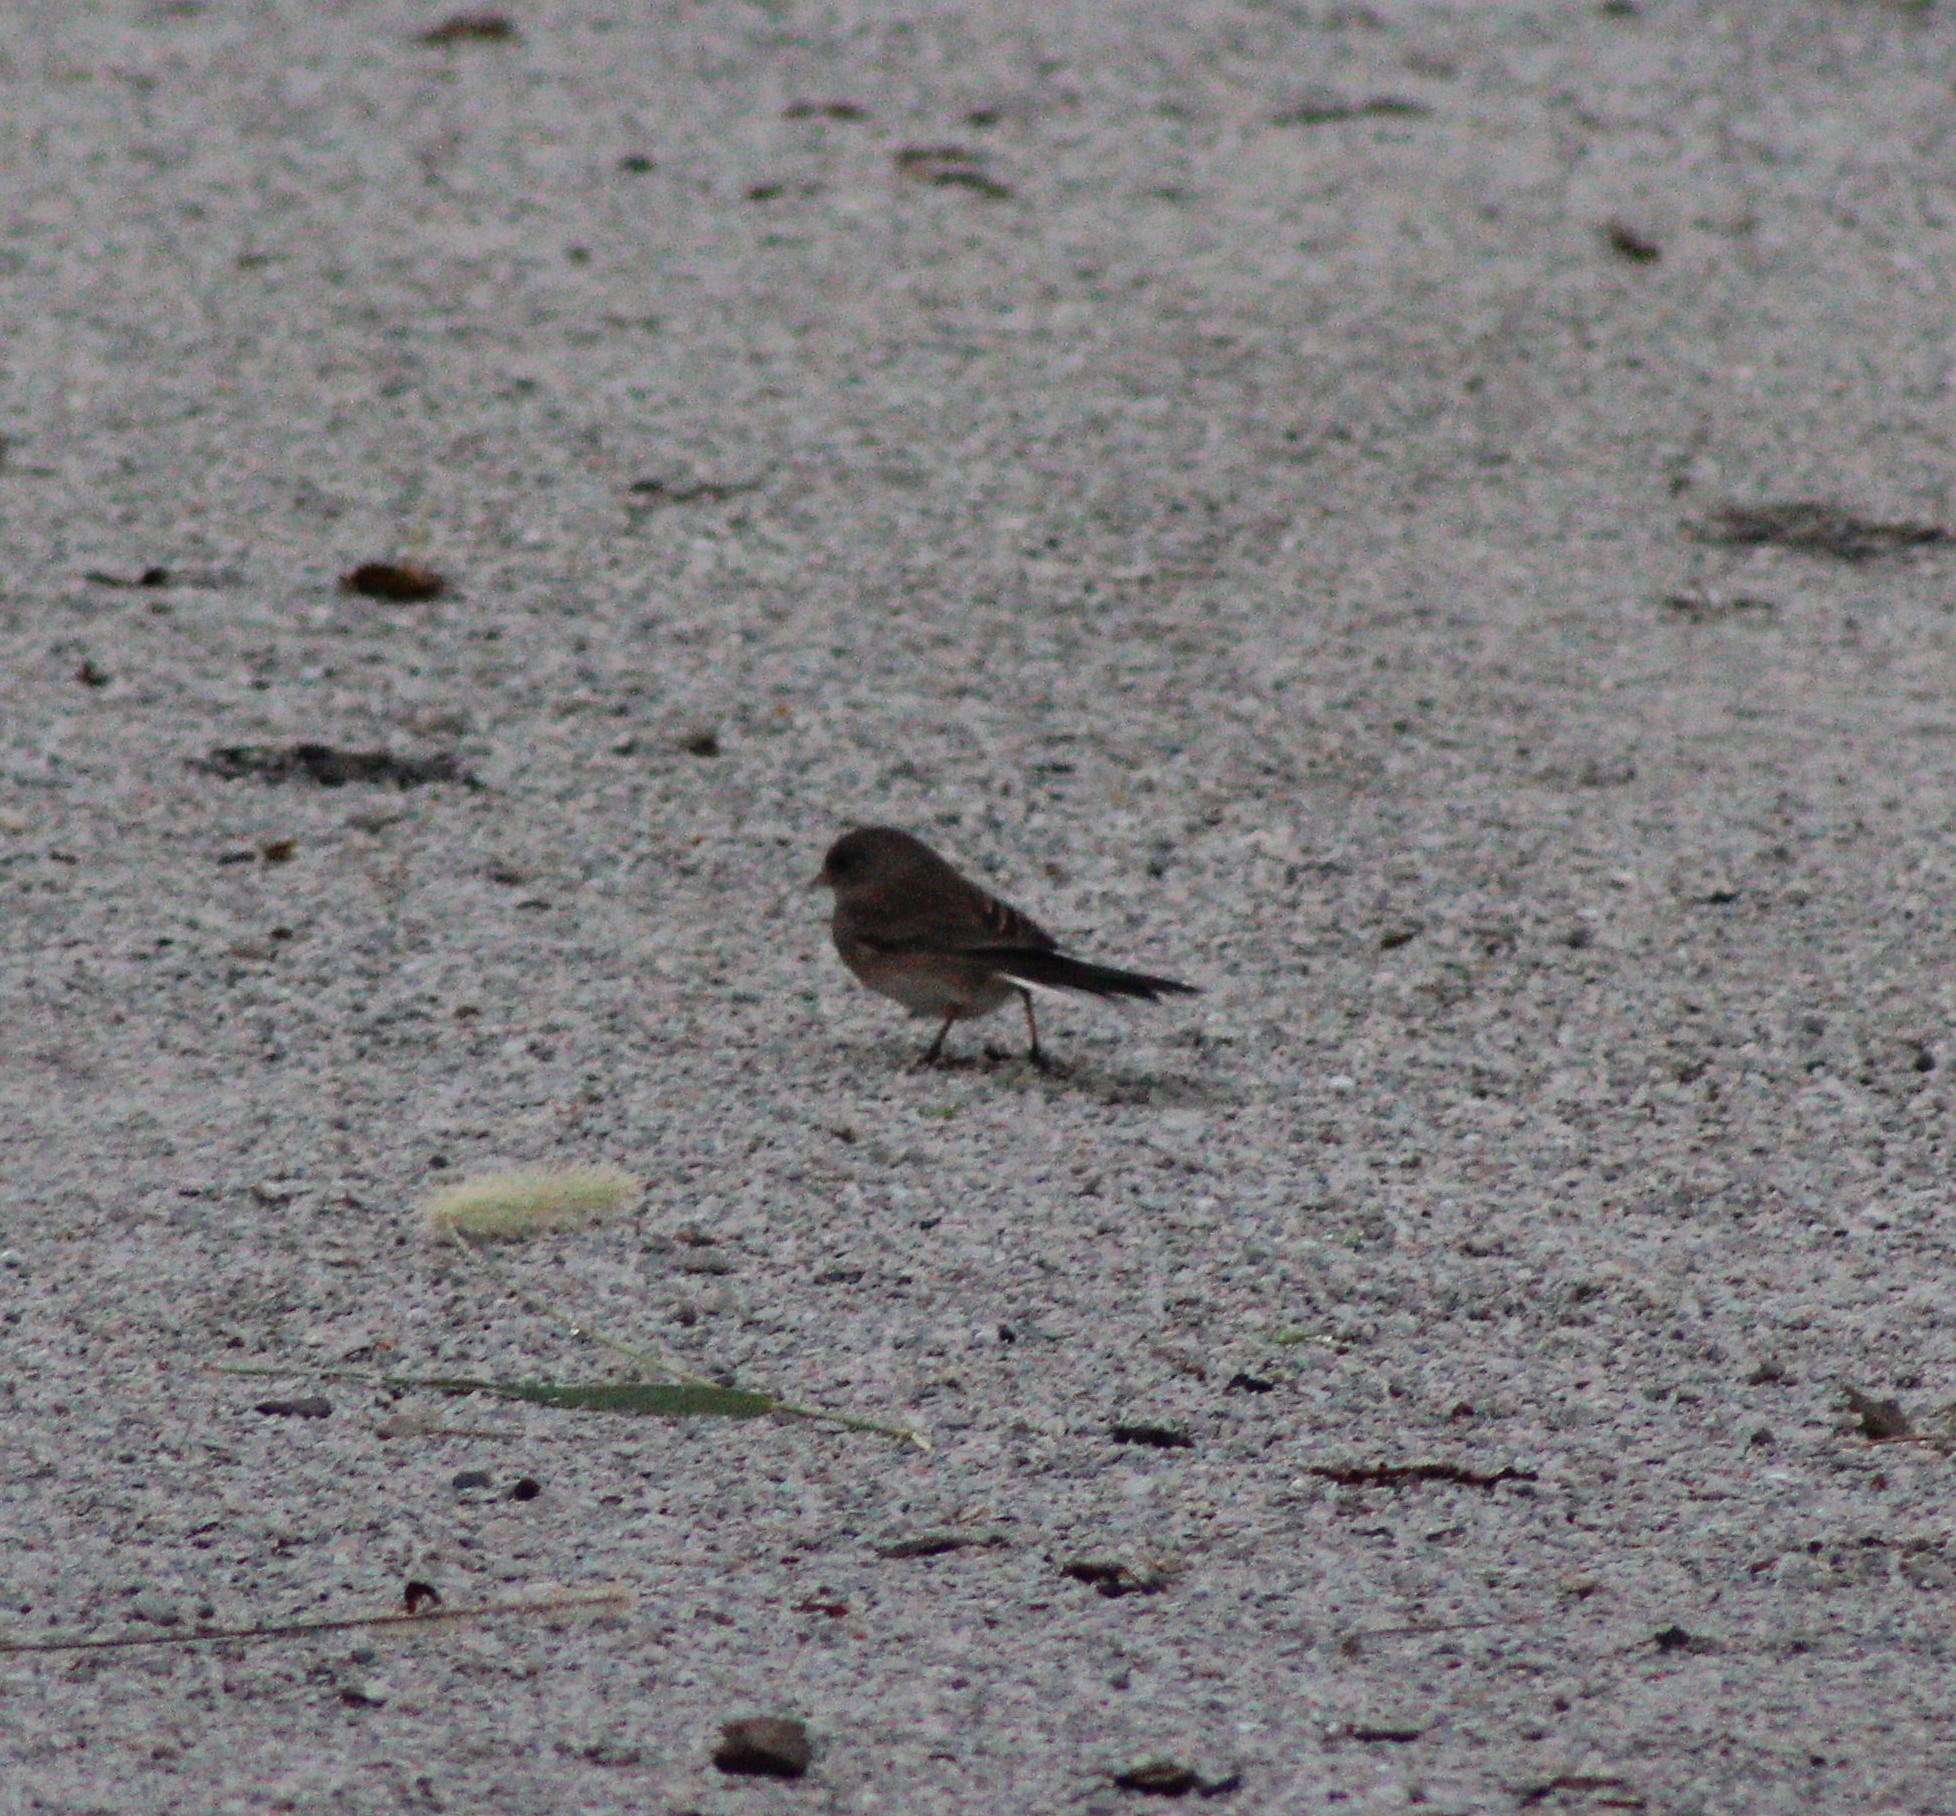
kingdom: Animalia
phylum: Chordata
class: Aves
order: Passeriformes
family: Passerellidae
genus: Junco
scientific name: Junco hyemalis
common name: Dark-eyed junco
